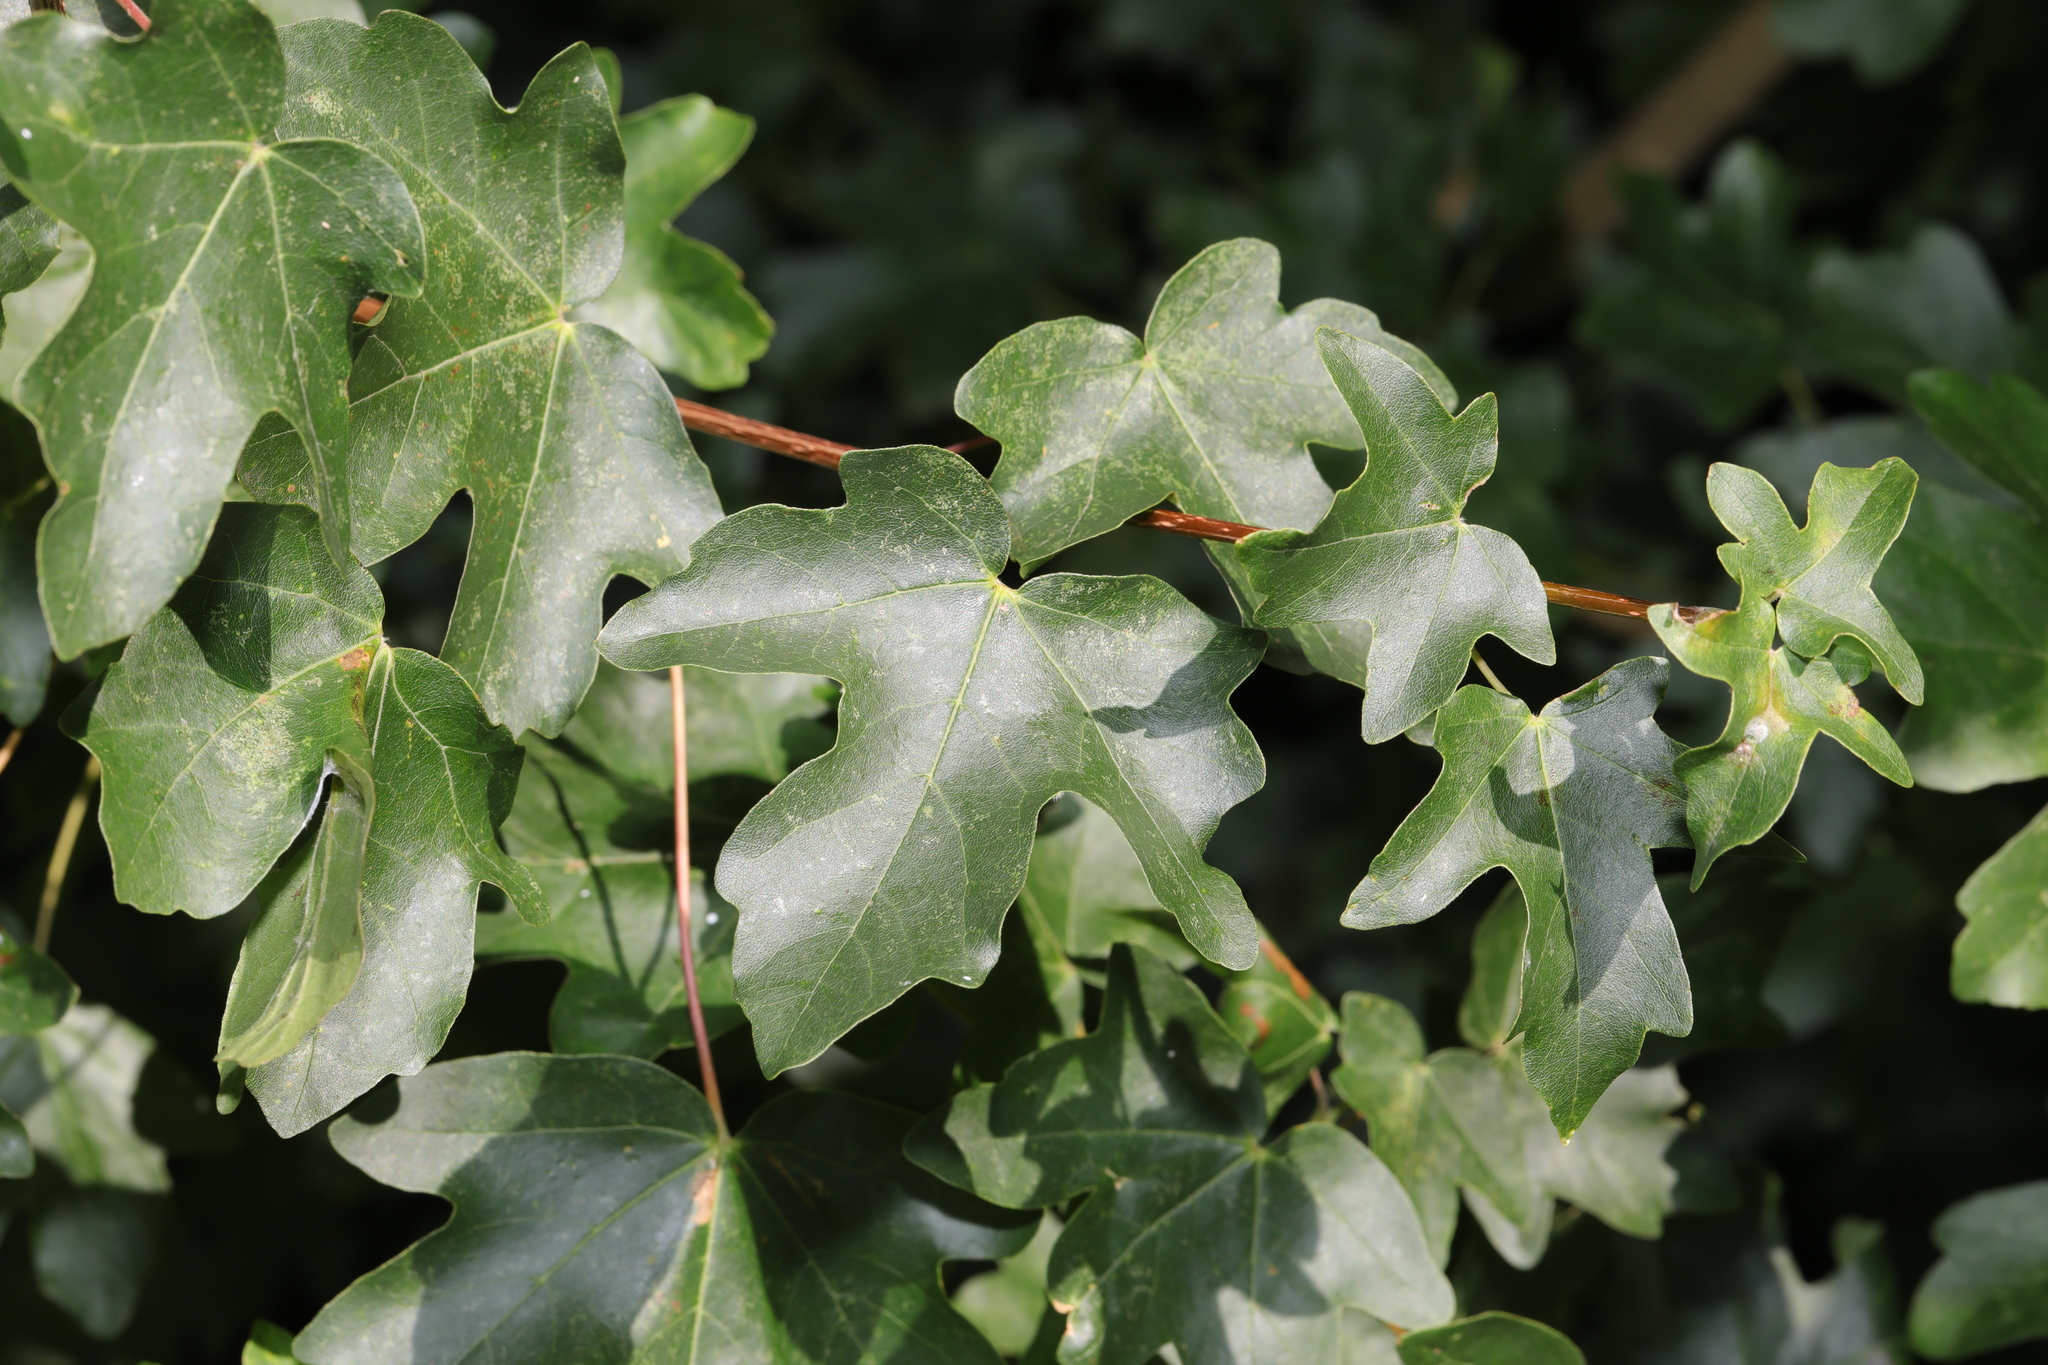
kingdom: Plantae
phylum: Tracheophyta
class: Magnoliopsida
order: Sapindales
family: Sapindaceae
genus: Acer
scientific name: Acer campestre
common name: Field maple
